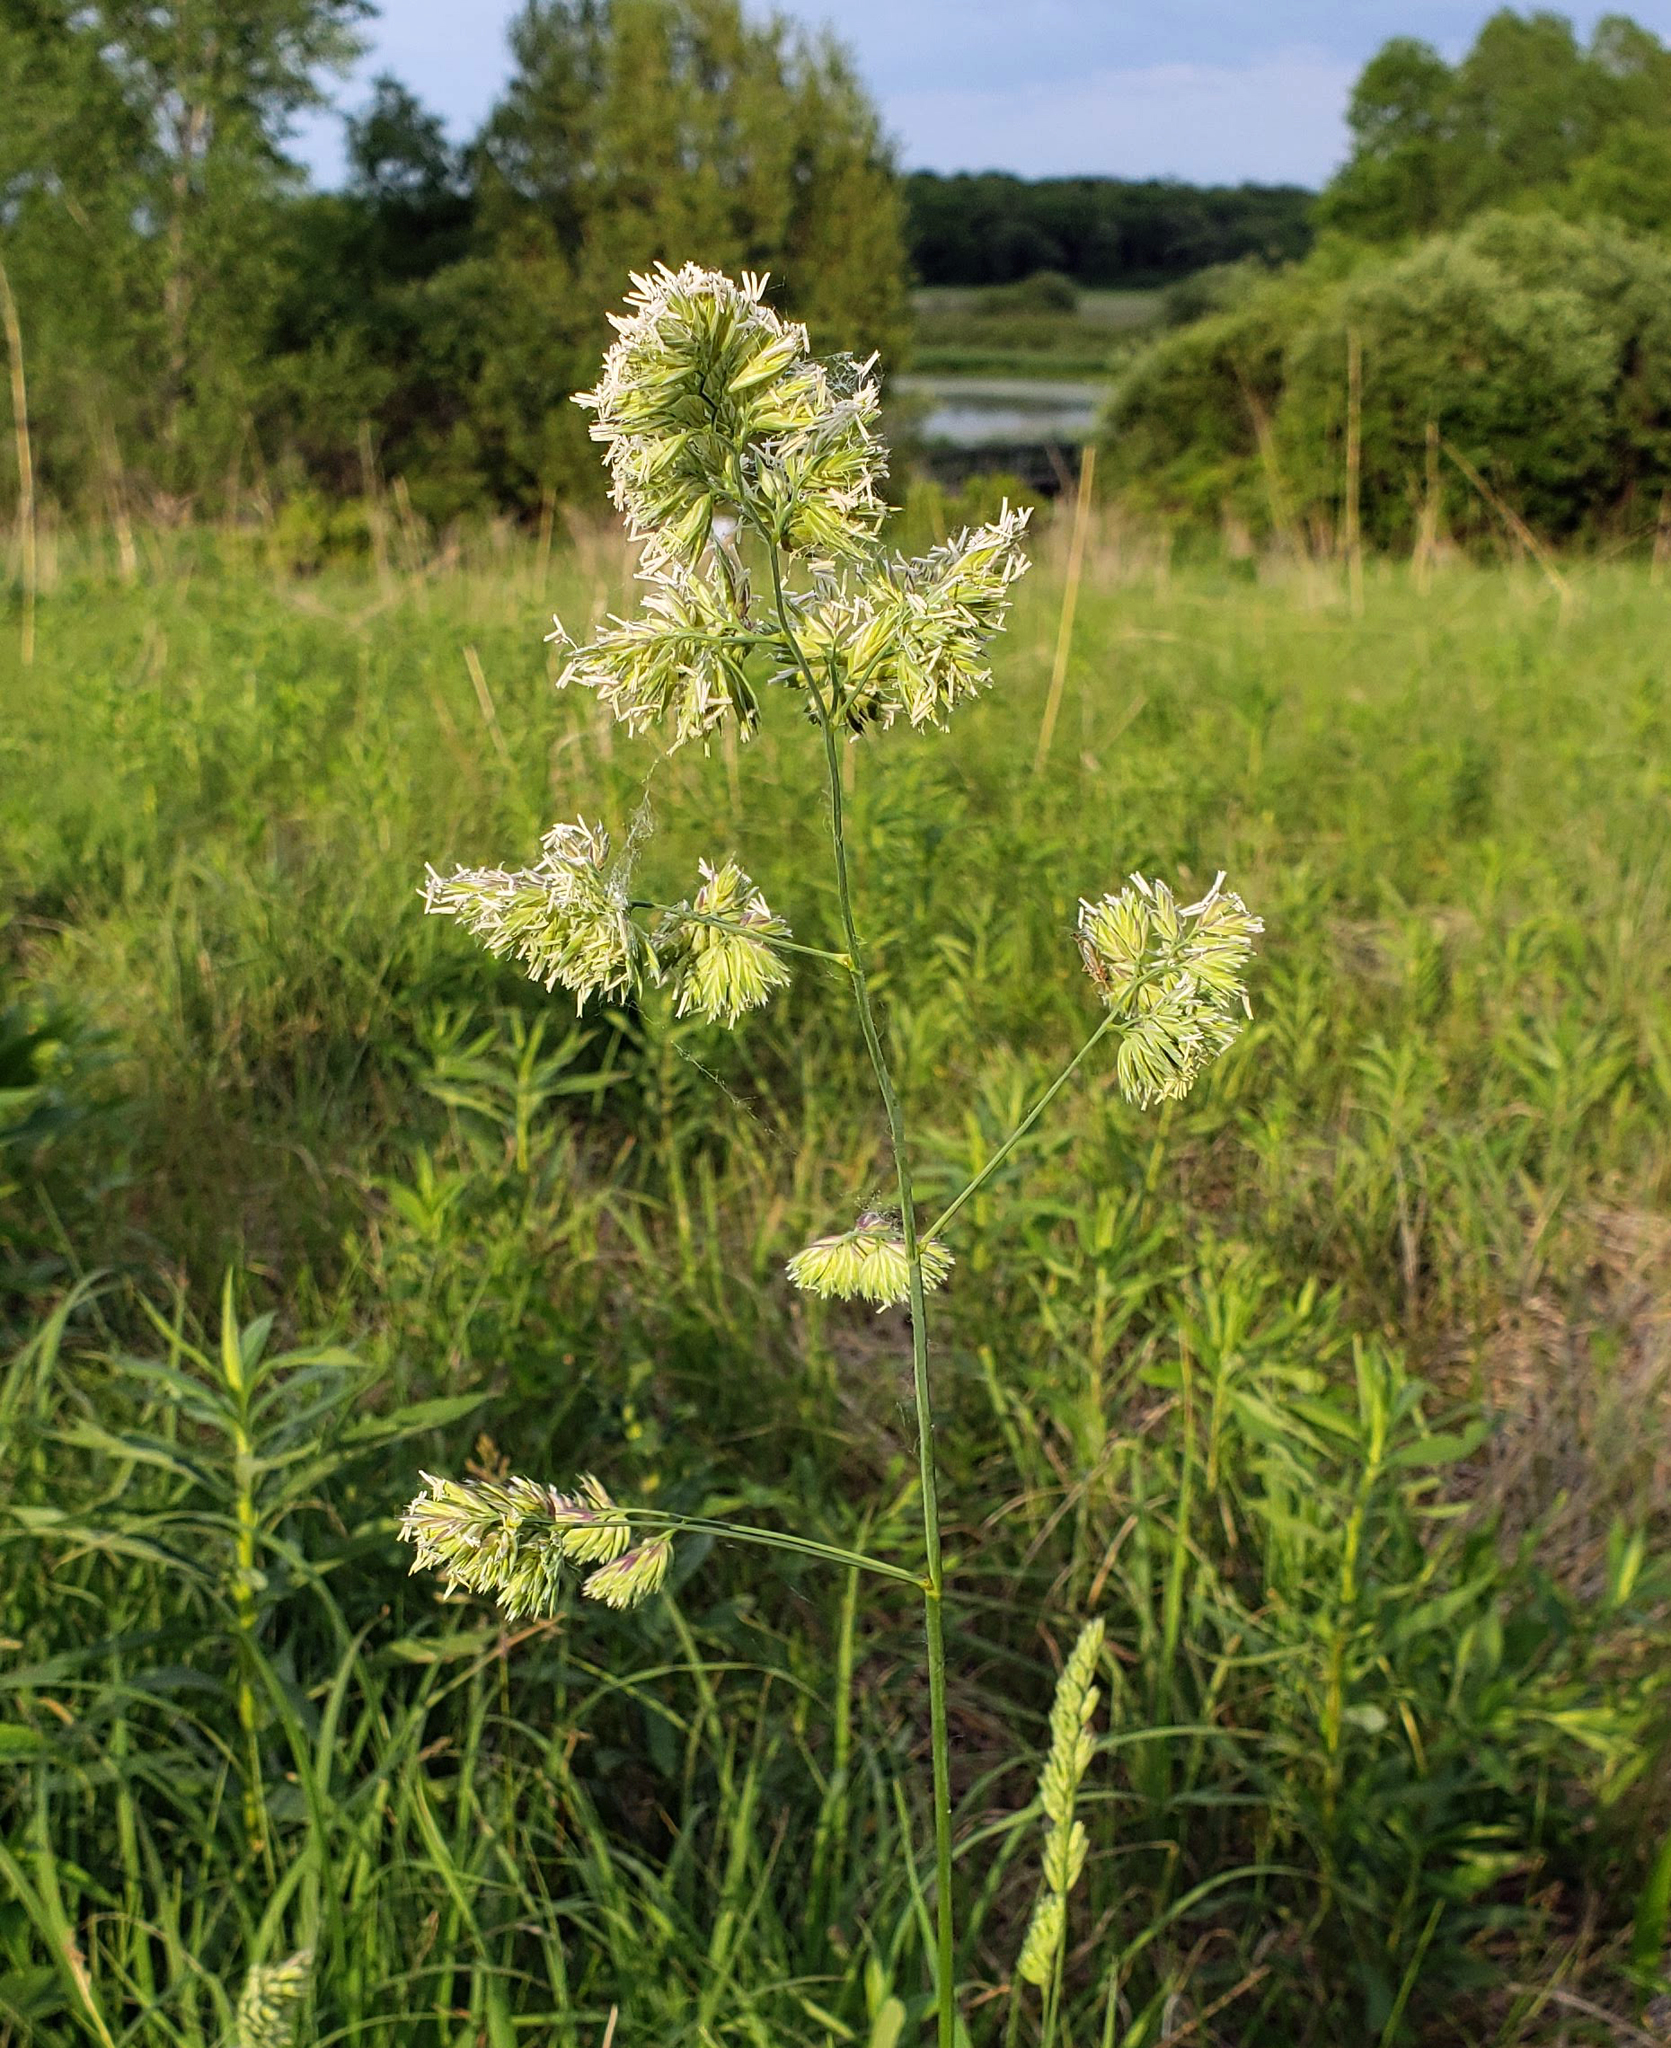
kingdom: Plantae
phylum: Tracheophyta
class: Liliopsida
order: Poales
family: Poaceae
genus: Dactylis
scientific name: Dactylis glomerata
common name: Orchardgrass
